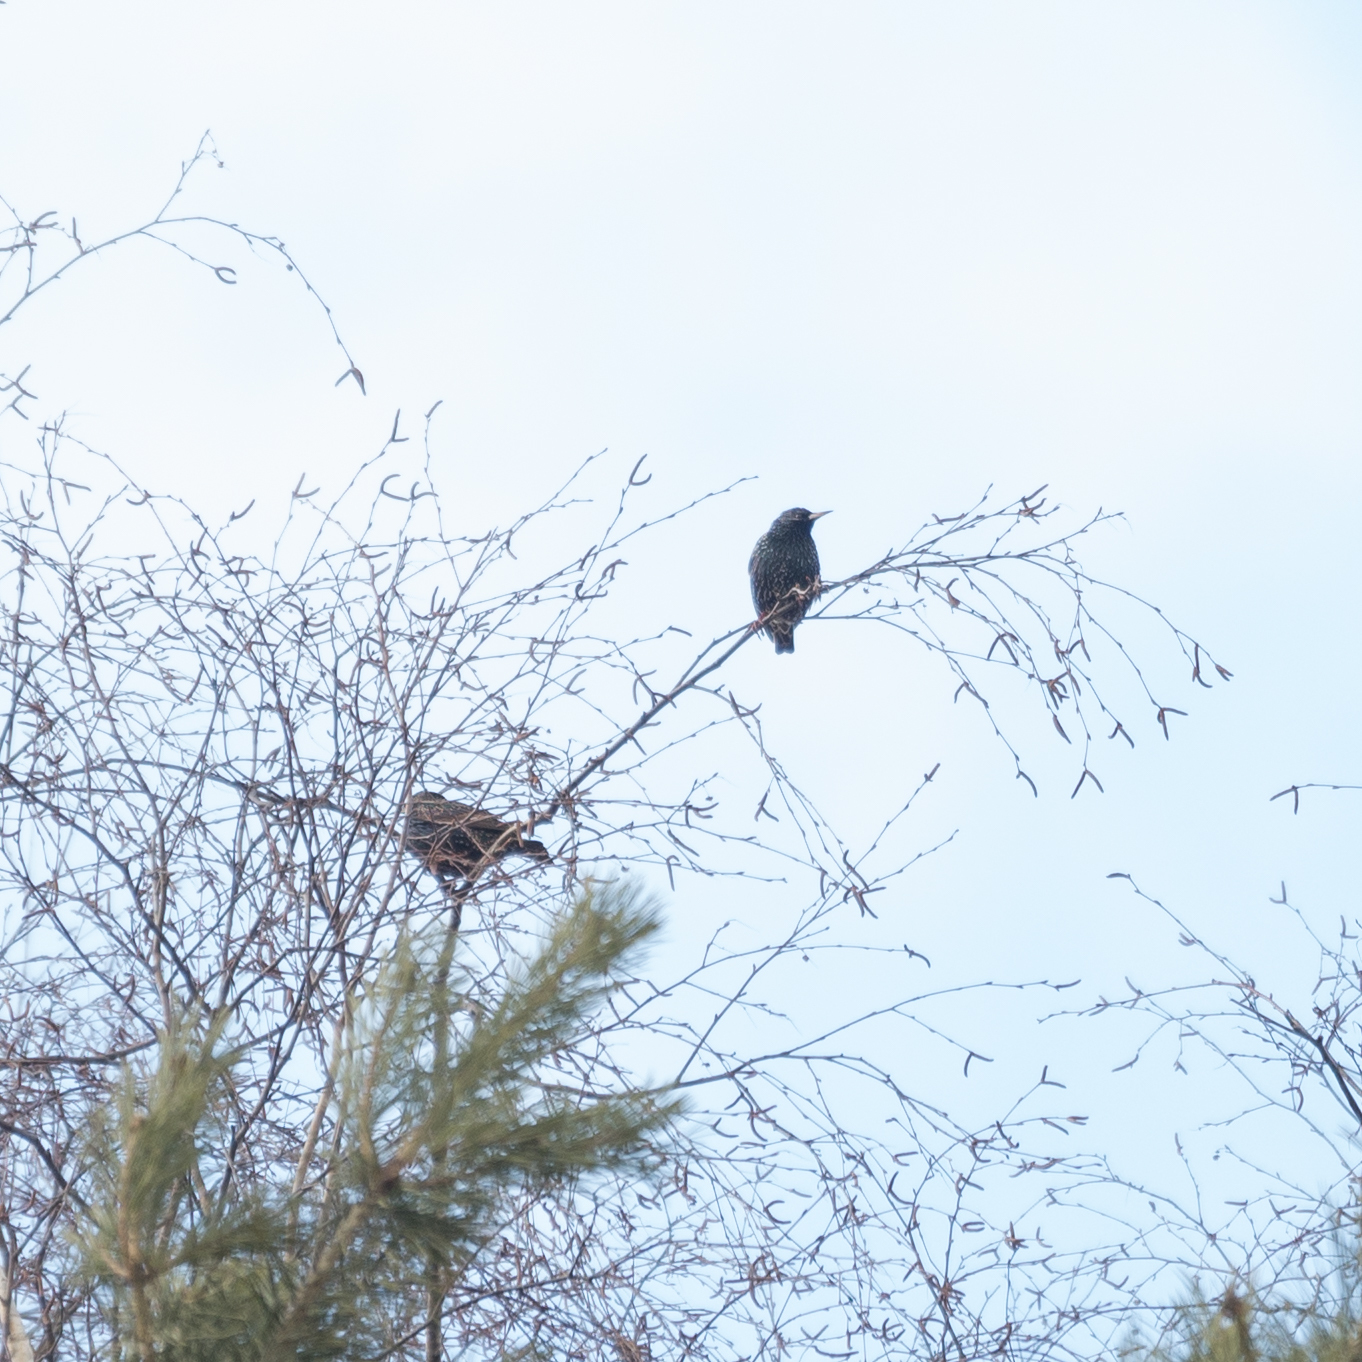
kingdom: Animalia
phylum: Chordata
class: Aves
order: Passeriformes
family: Sturnidae
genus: Sturnus
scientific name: Sturnus vulgaris
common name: Common starling
